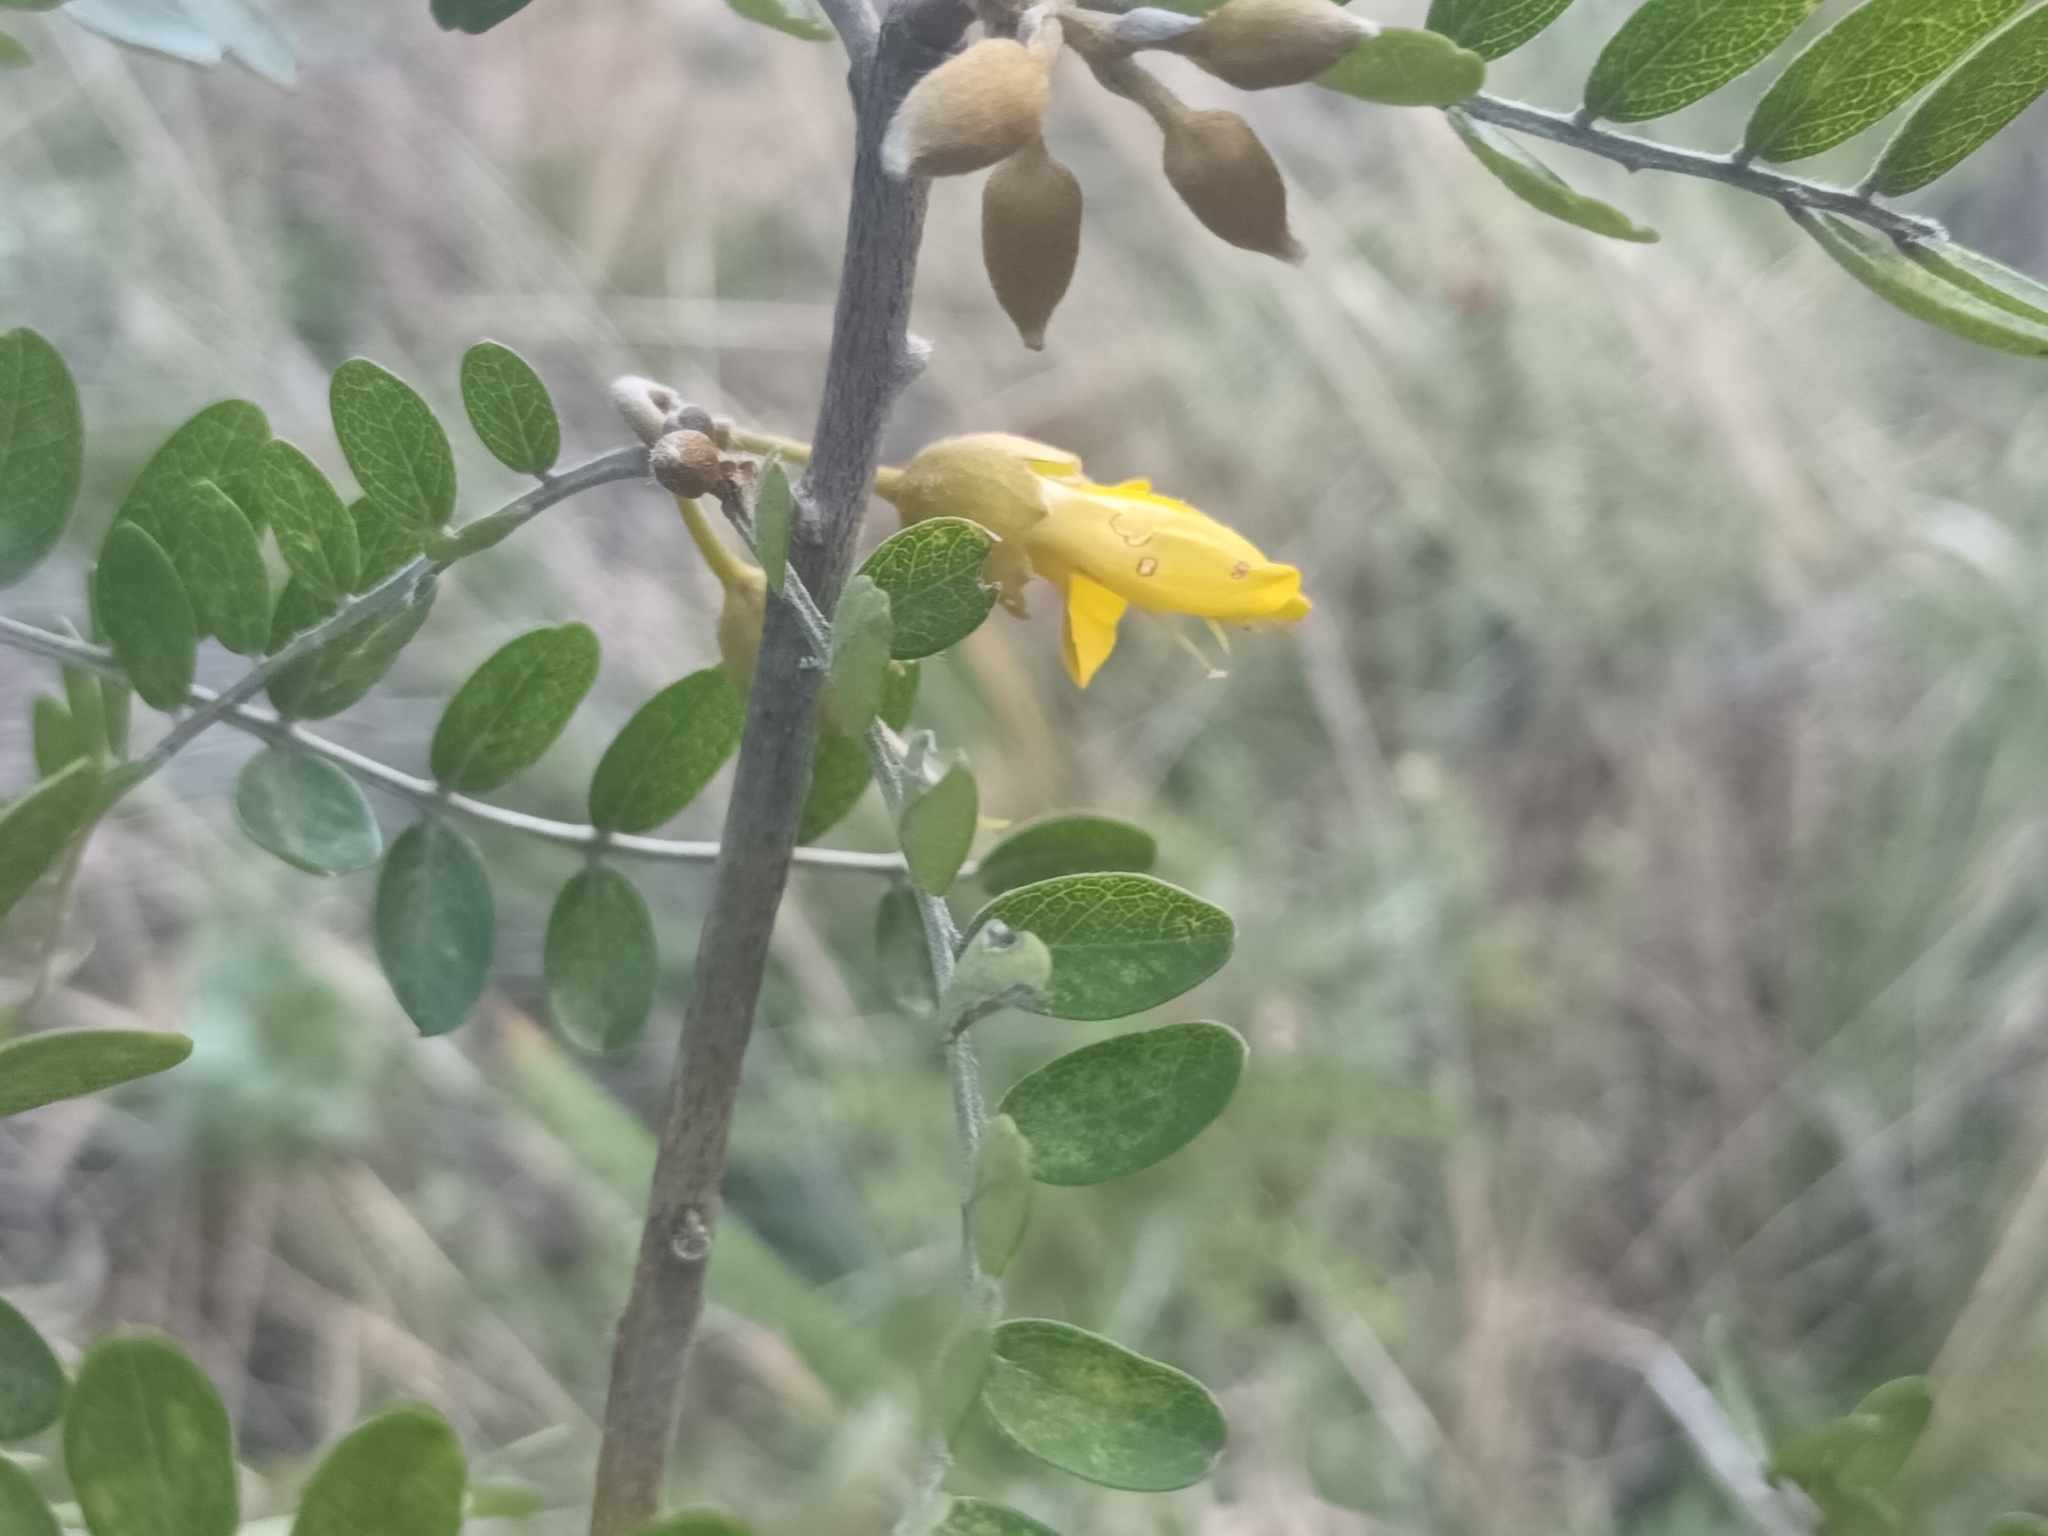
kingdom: Plantae
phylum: Tracheophyta
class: Magnoliopsida
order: Fabales
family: Fabaceae
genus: Sophora
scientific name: Sophora chrysophylla
